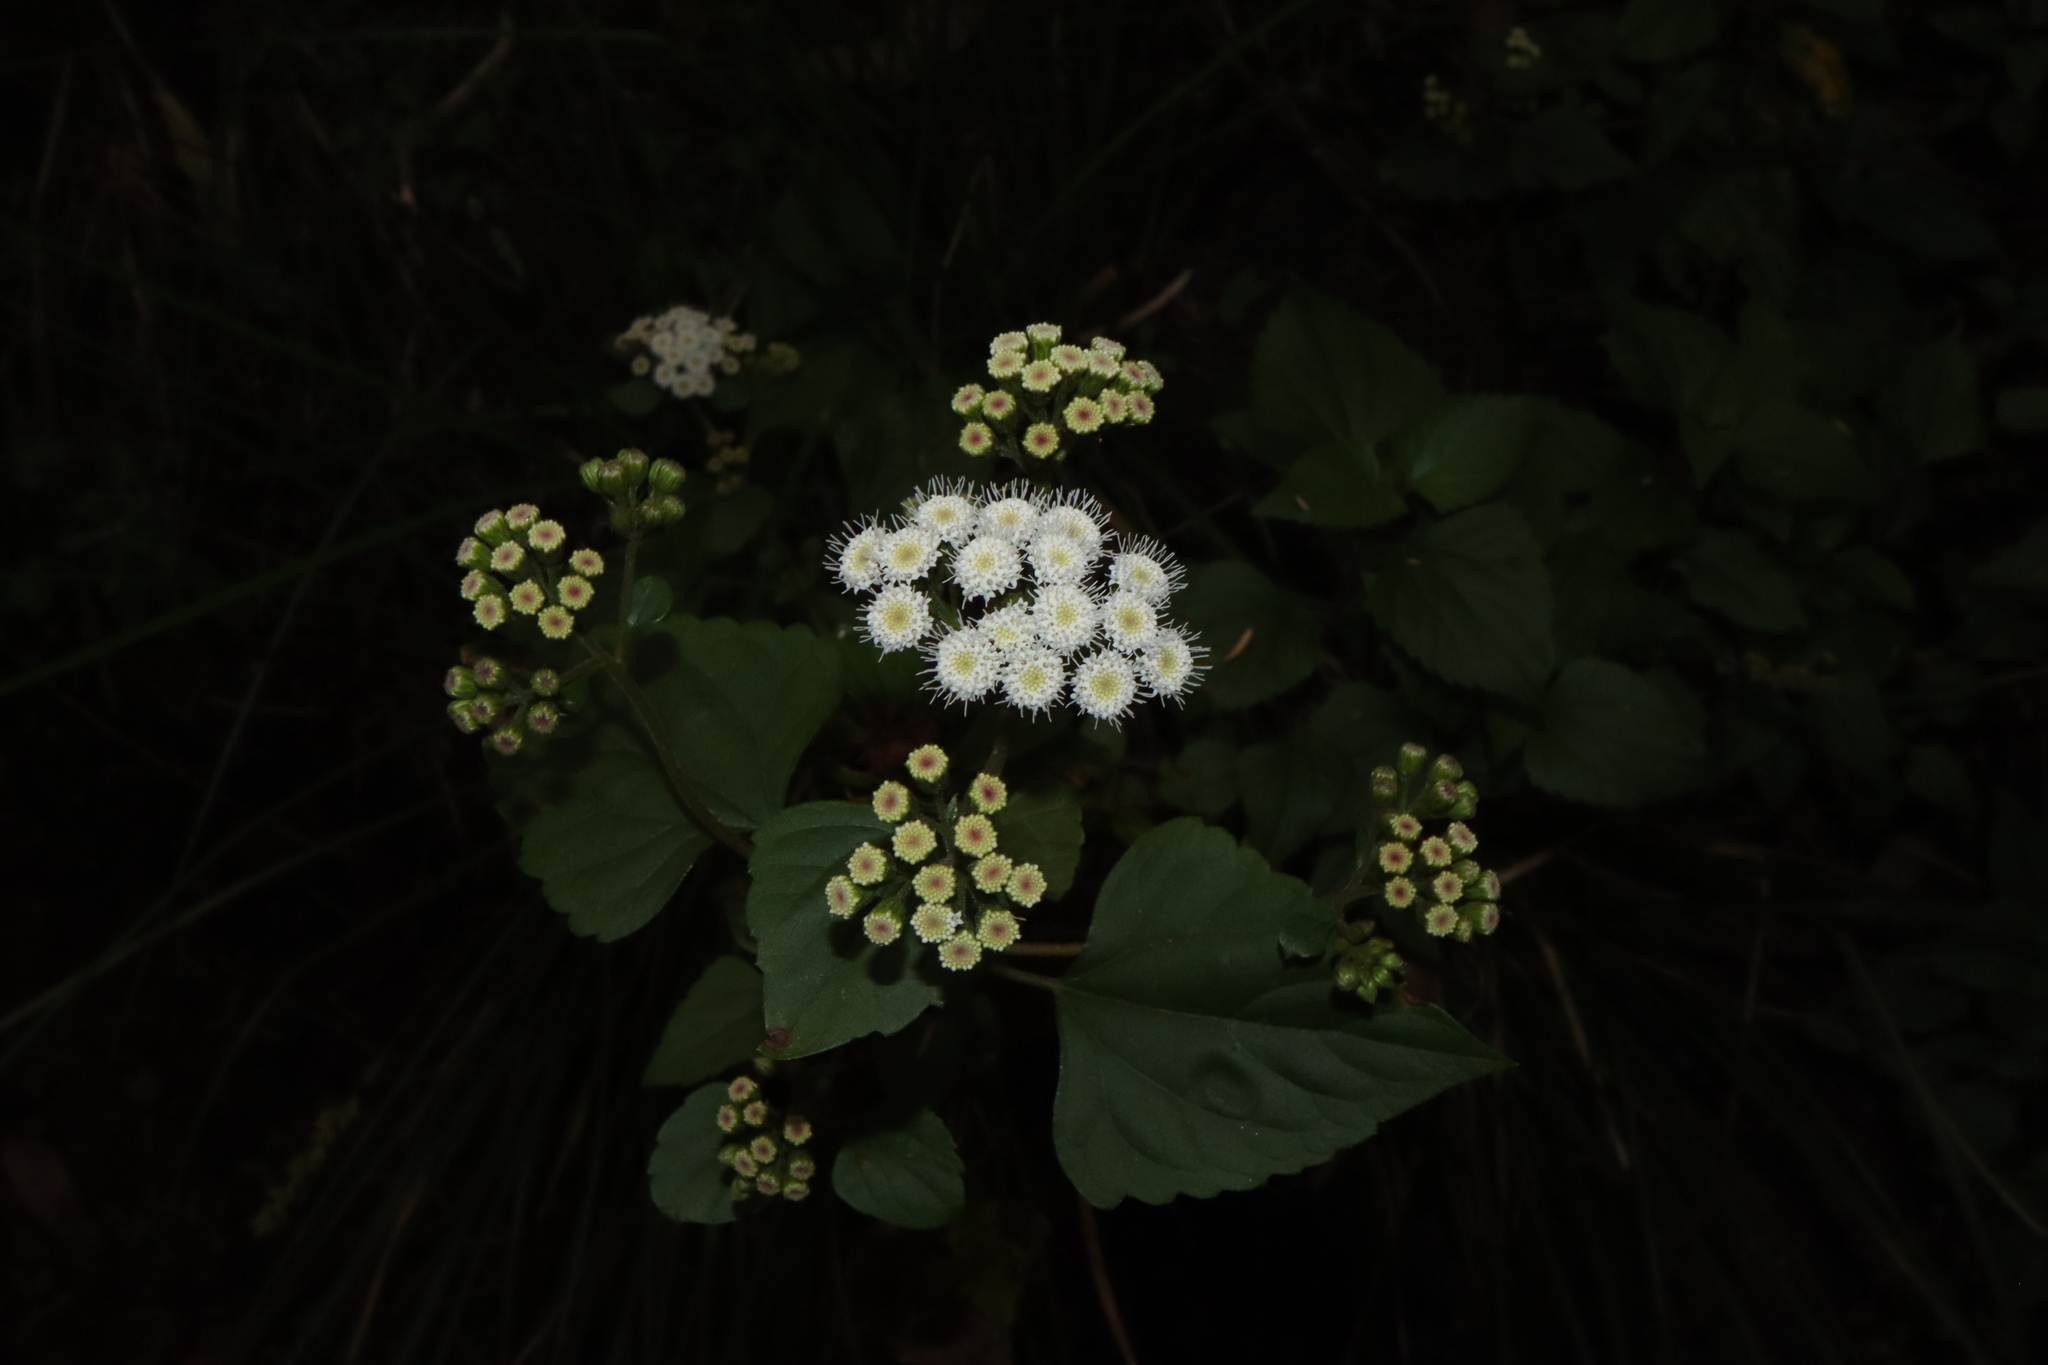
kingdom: Plantae
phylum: Tracheophyta
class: Magnoliopsida
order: Asterales
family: Asteraceae
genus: Ageratina
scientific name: Ageratina adenophora
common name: Sticky snakeroot
